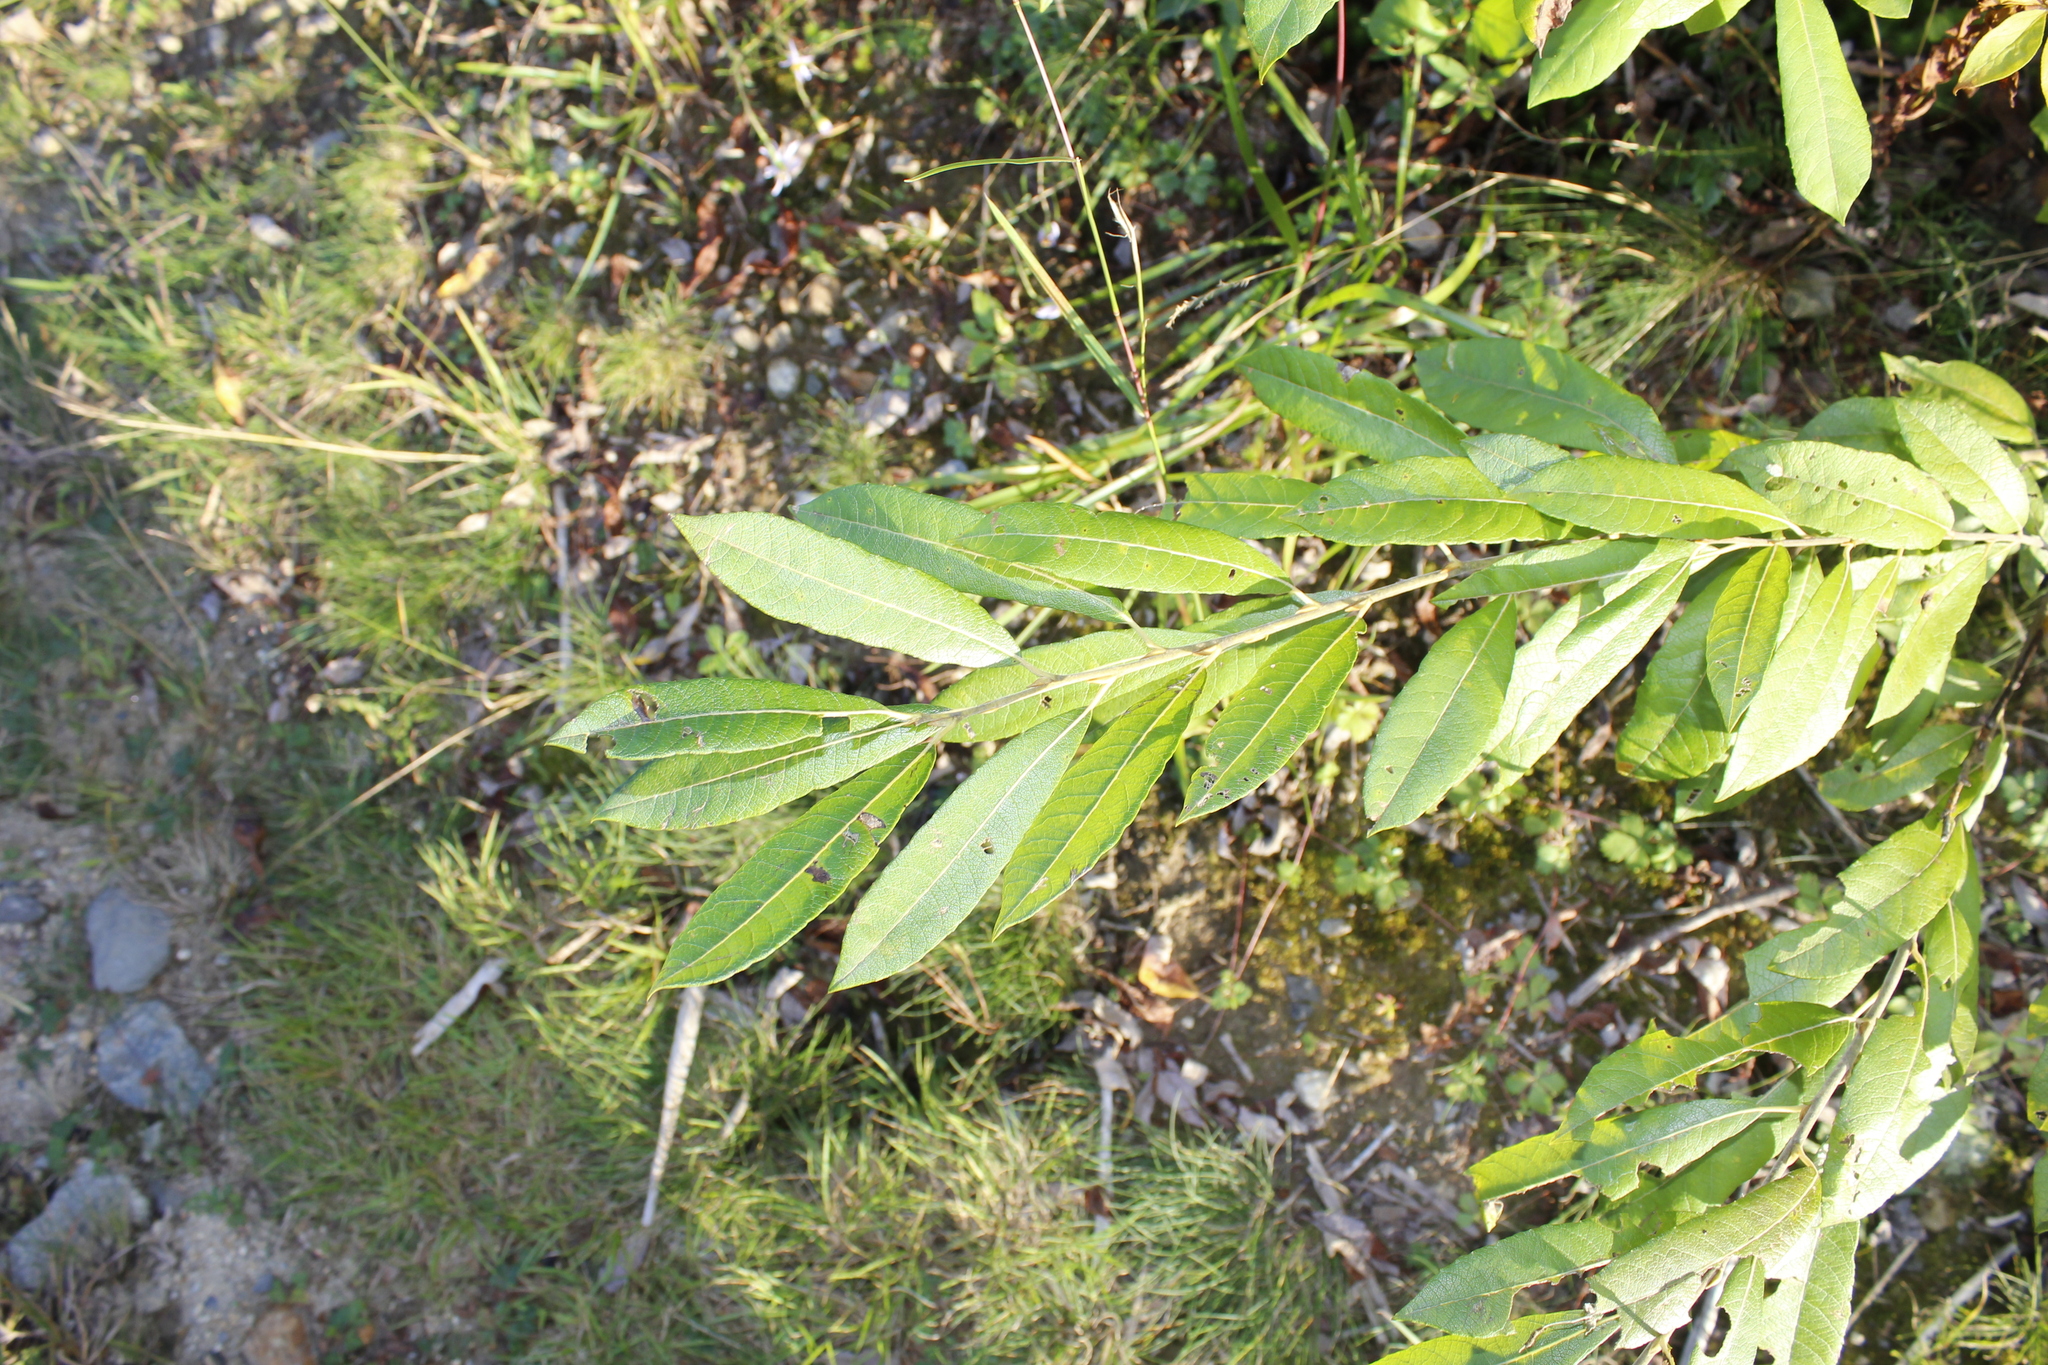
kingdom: Plantae
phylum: Tracheophyta
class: Magnoliopsida
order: Malpighiales
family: Salicaceae
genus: Salix
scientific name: Salix humilis
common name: Prairie willow
